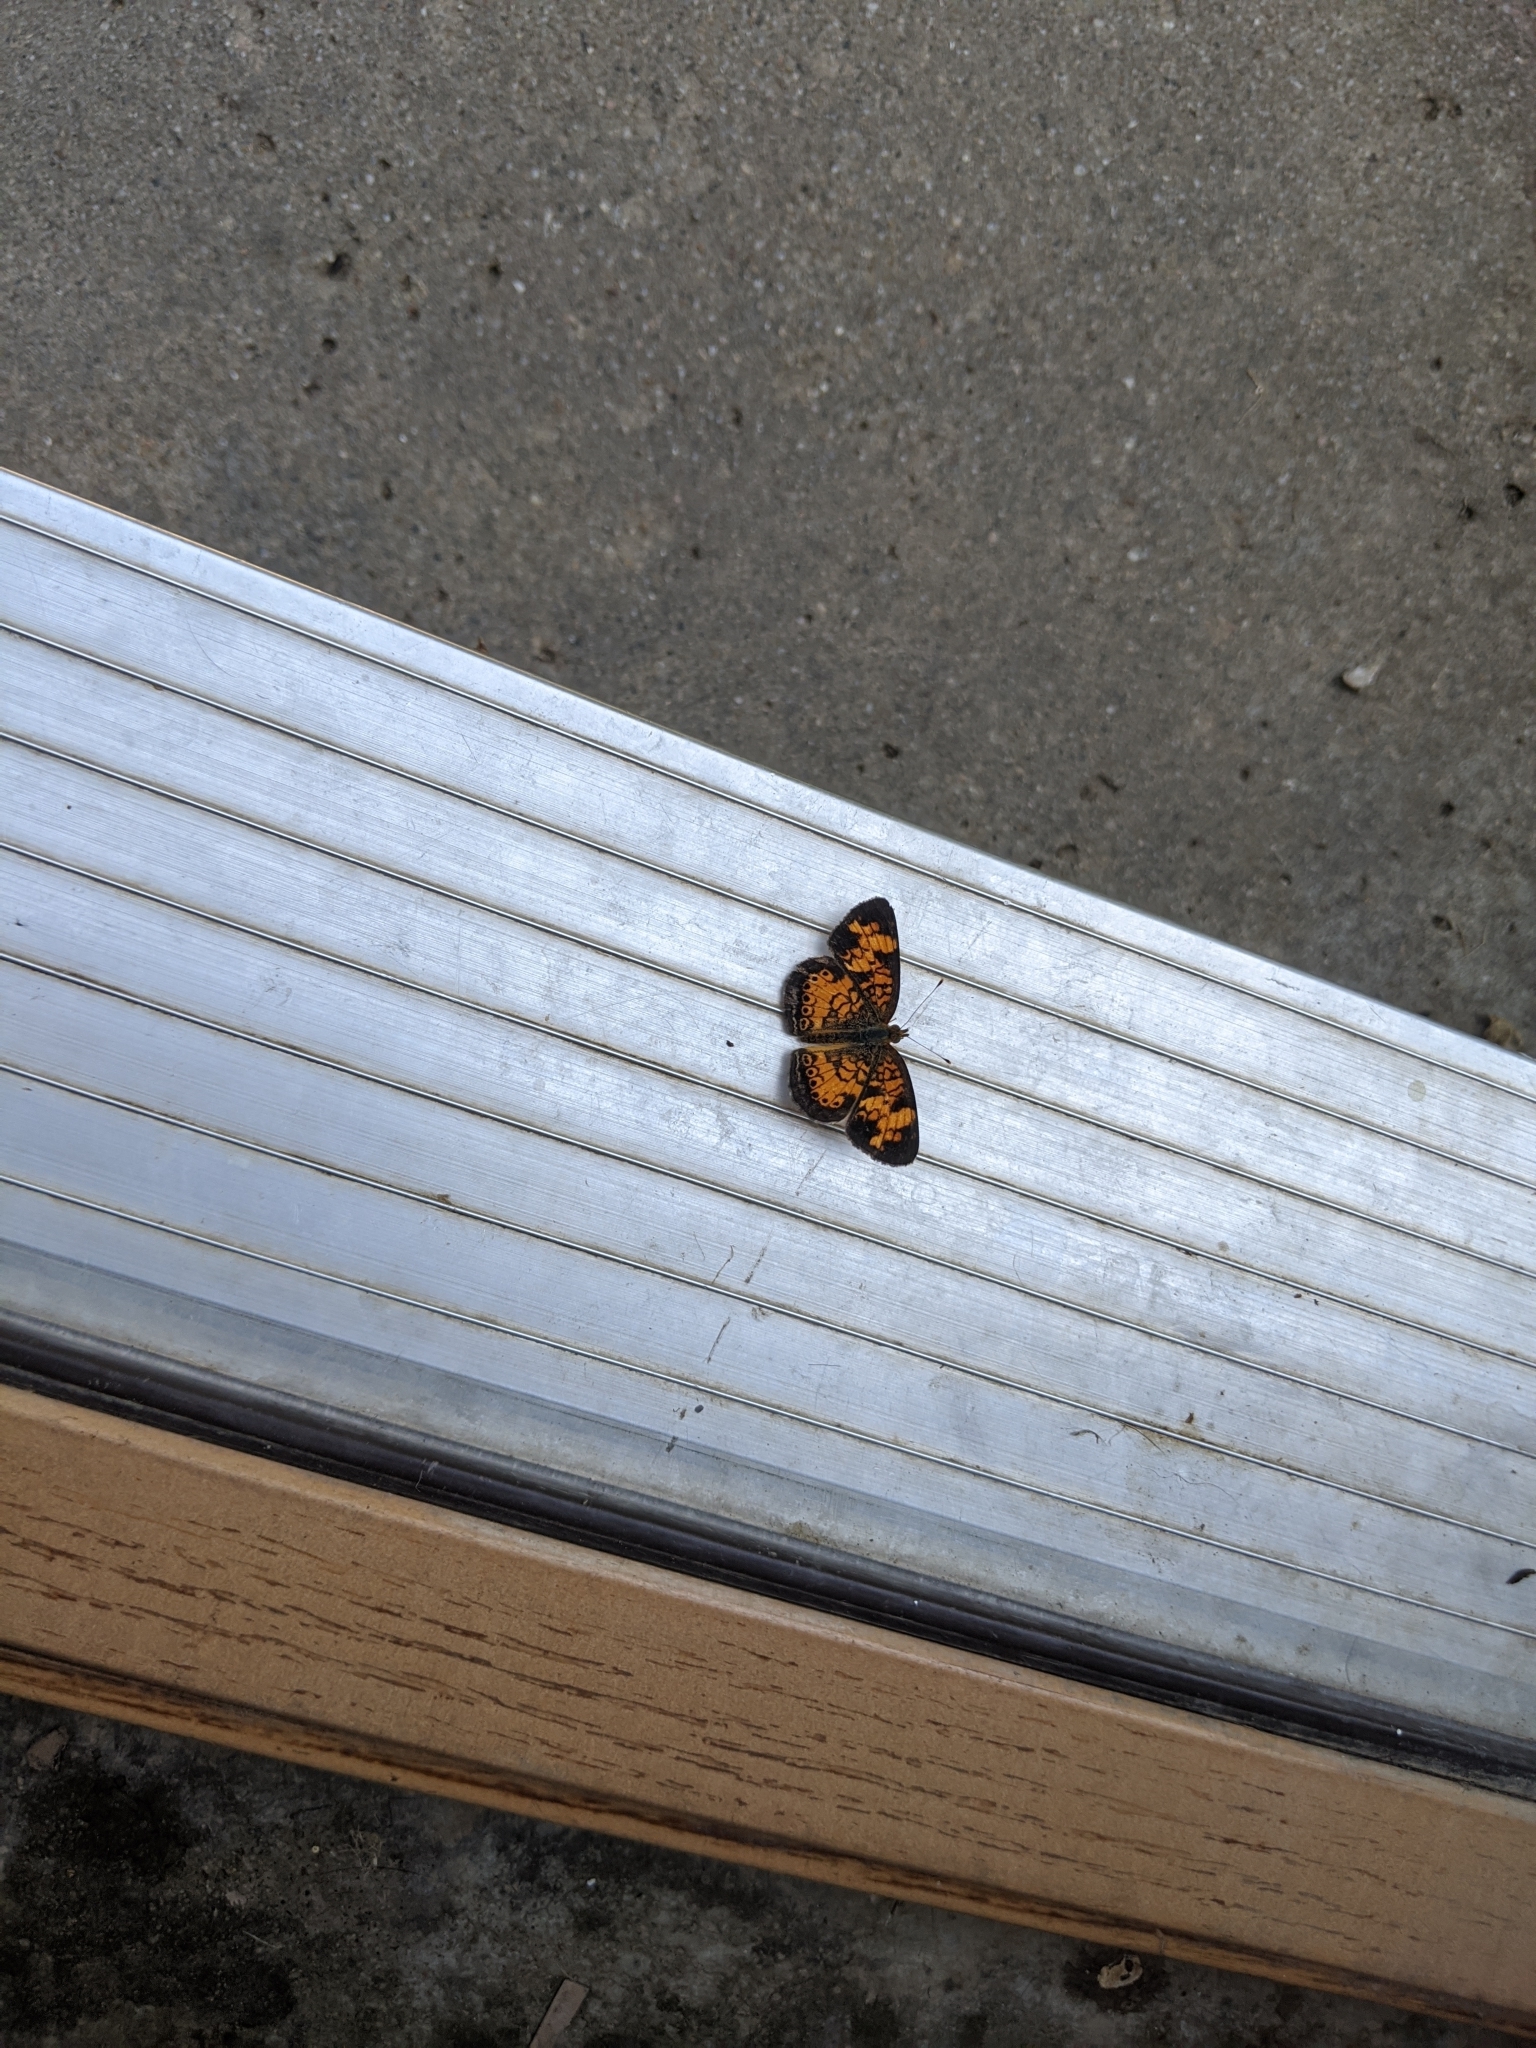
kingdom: Animalia
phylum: Arthropoda
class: Insecta
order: Lepidoptera
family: Nymphalidae
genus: Phyciodes
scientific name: Phyciodes tharos
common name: Pearl crescent
